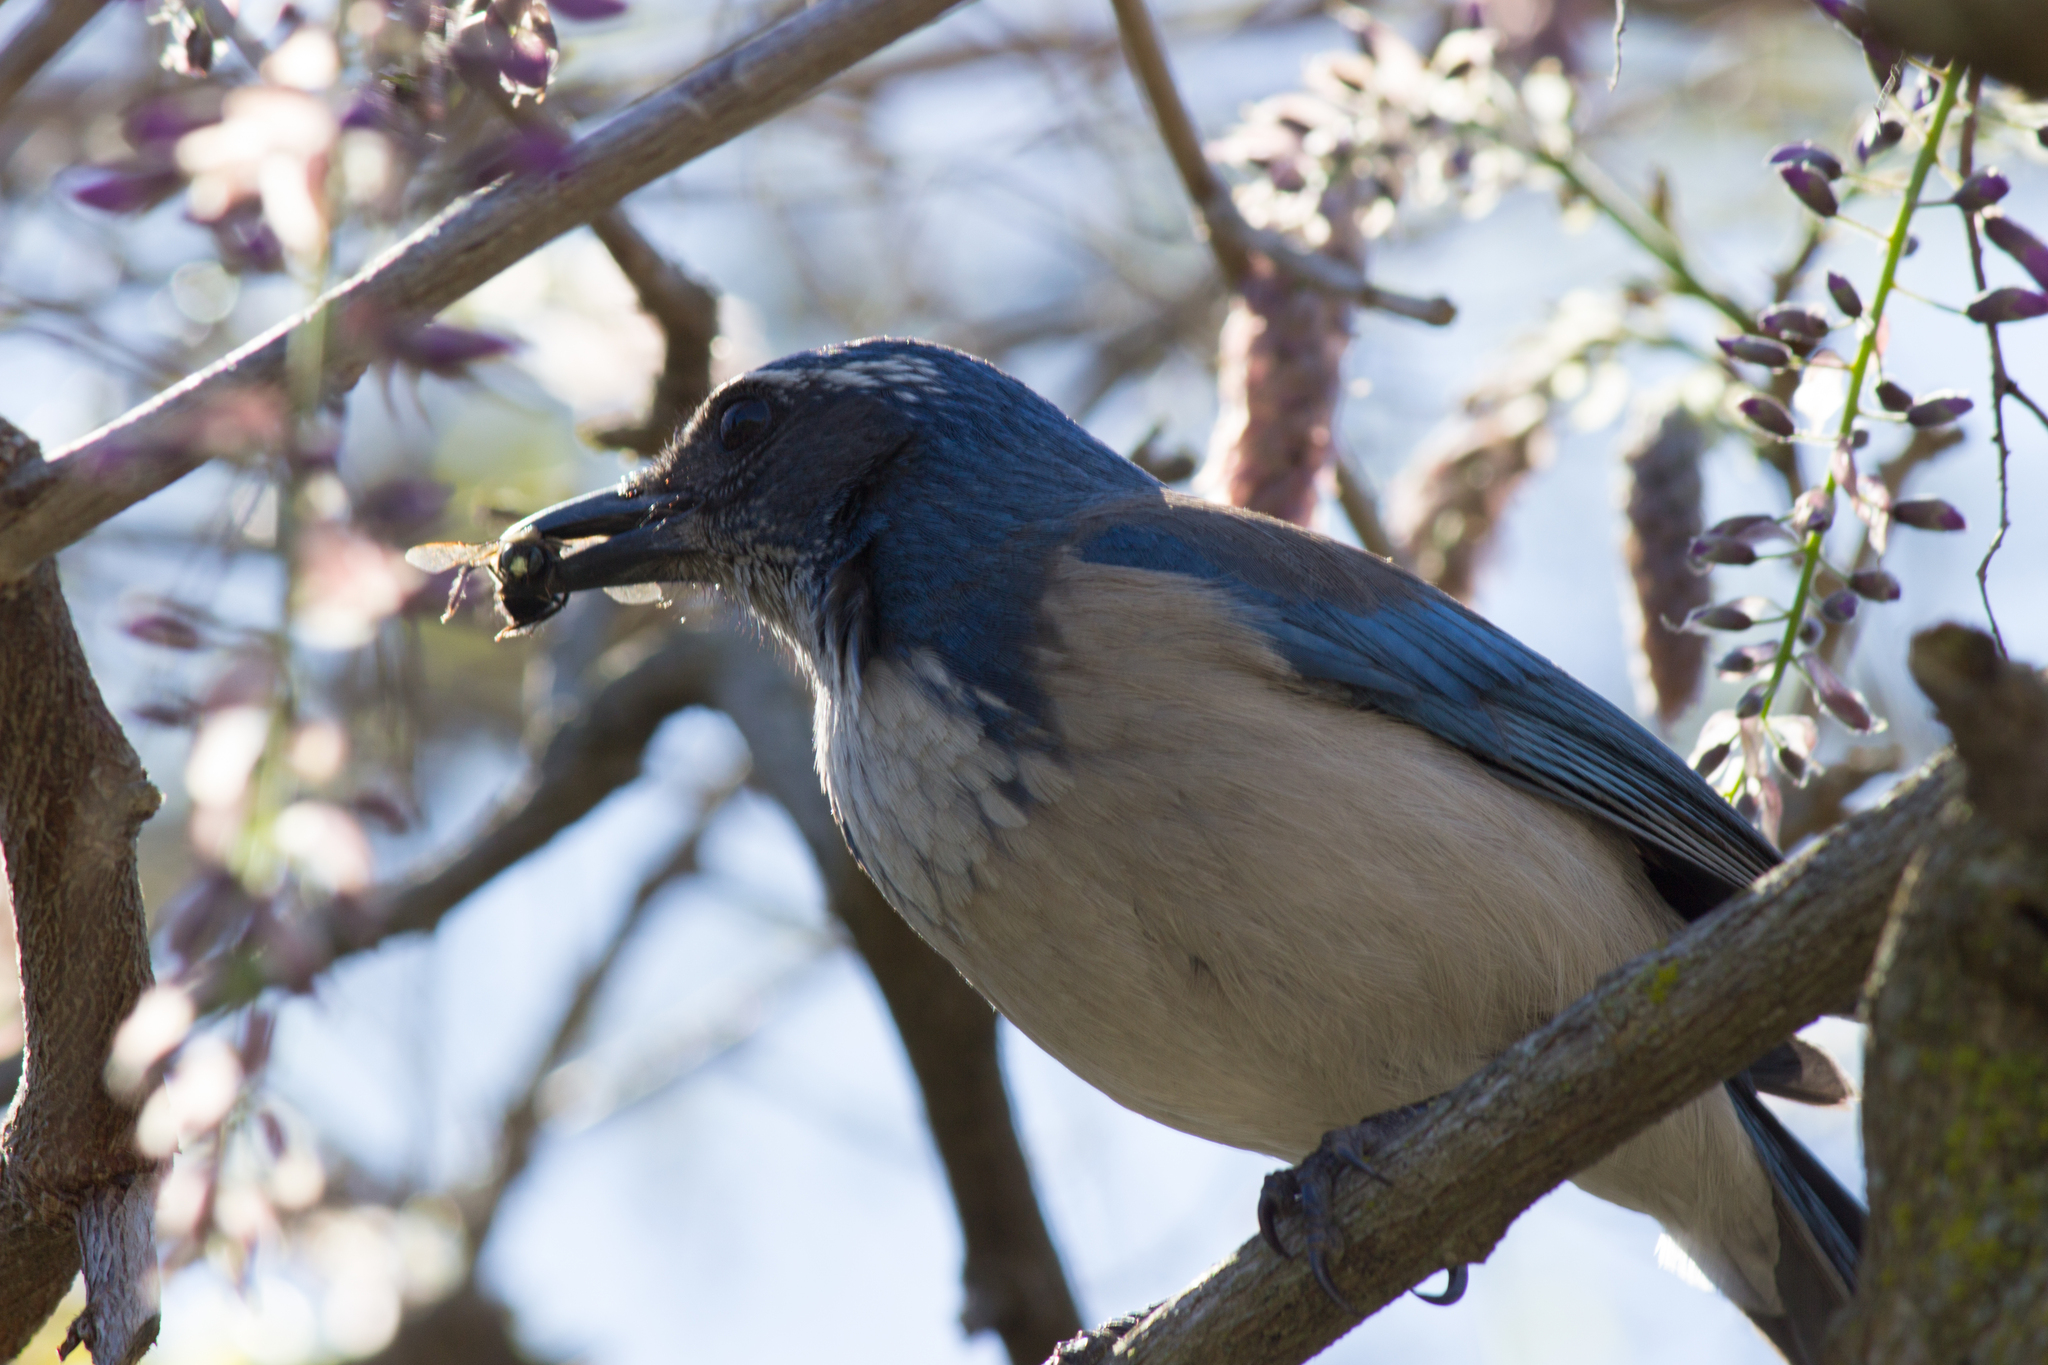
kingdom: Animalia
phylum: Chordata
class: Aves
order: Passeriformes
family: Corvidae
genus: Aphelocoma
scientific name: Aphelocoma californica
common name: California scrub-jay
